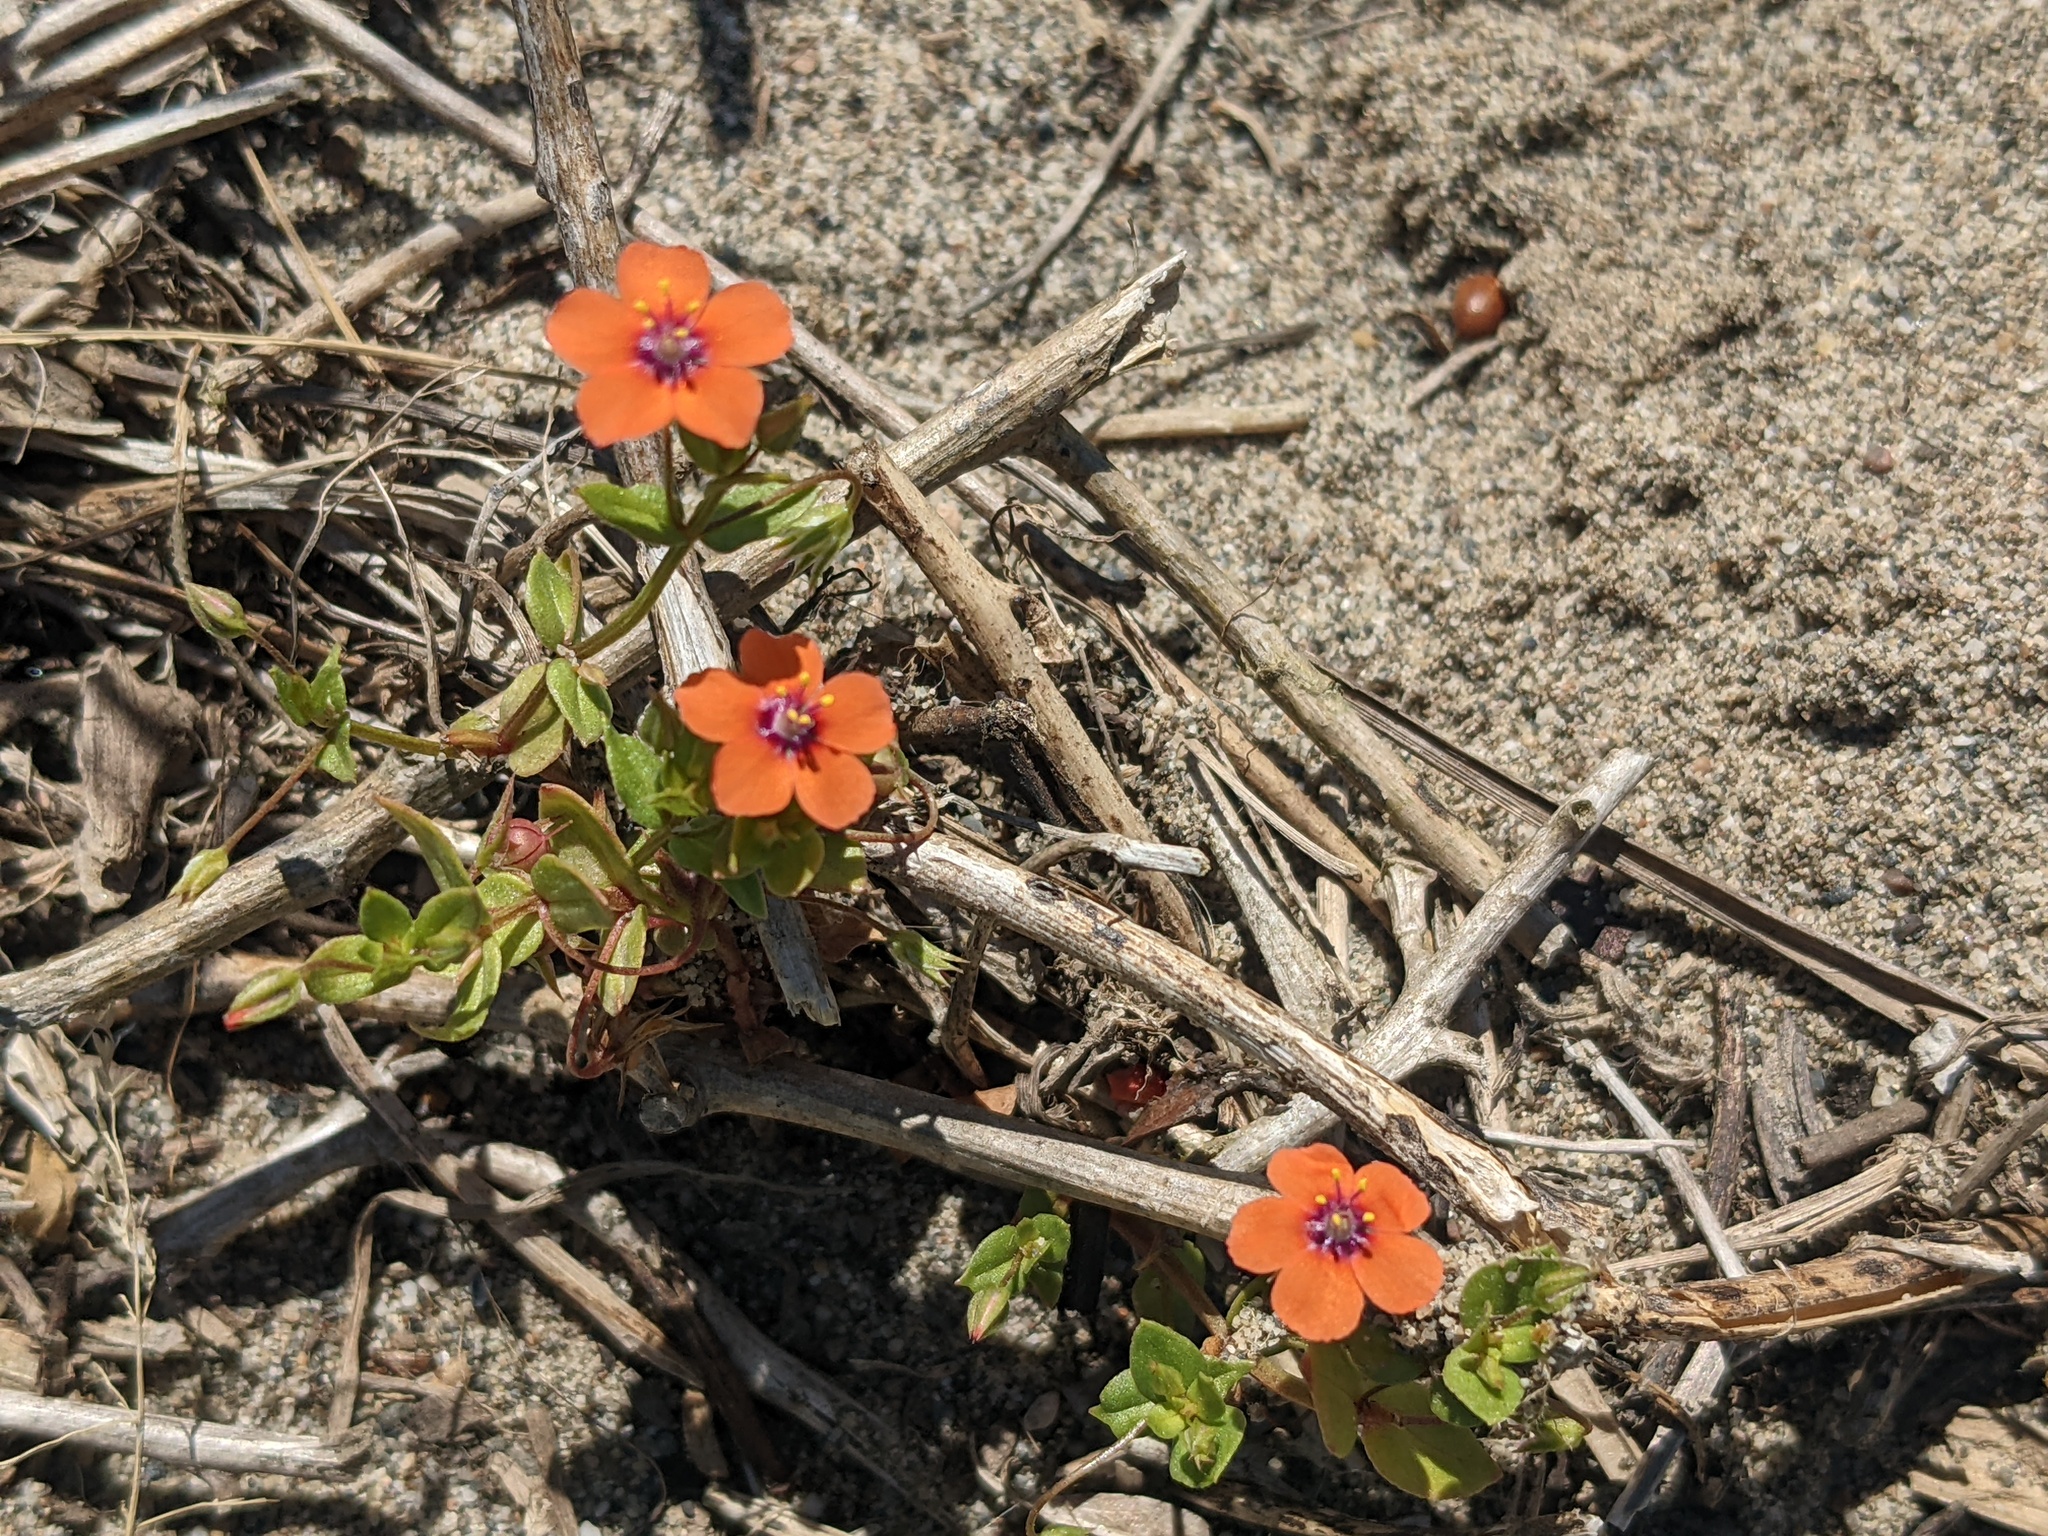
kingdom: Plantae
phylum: Tracheophyta
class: Magnoliopsida
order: Ericales
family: Primulaceae
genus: Lysimachia
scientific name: Lysimachia arvensis
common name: Scarlet pimpernel
